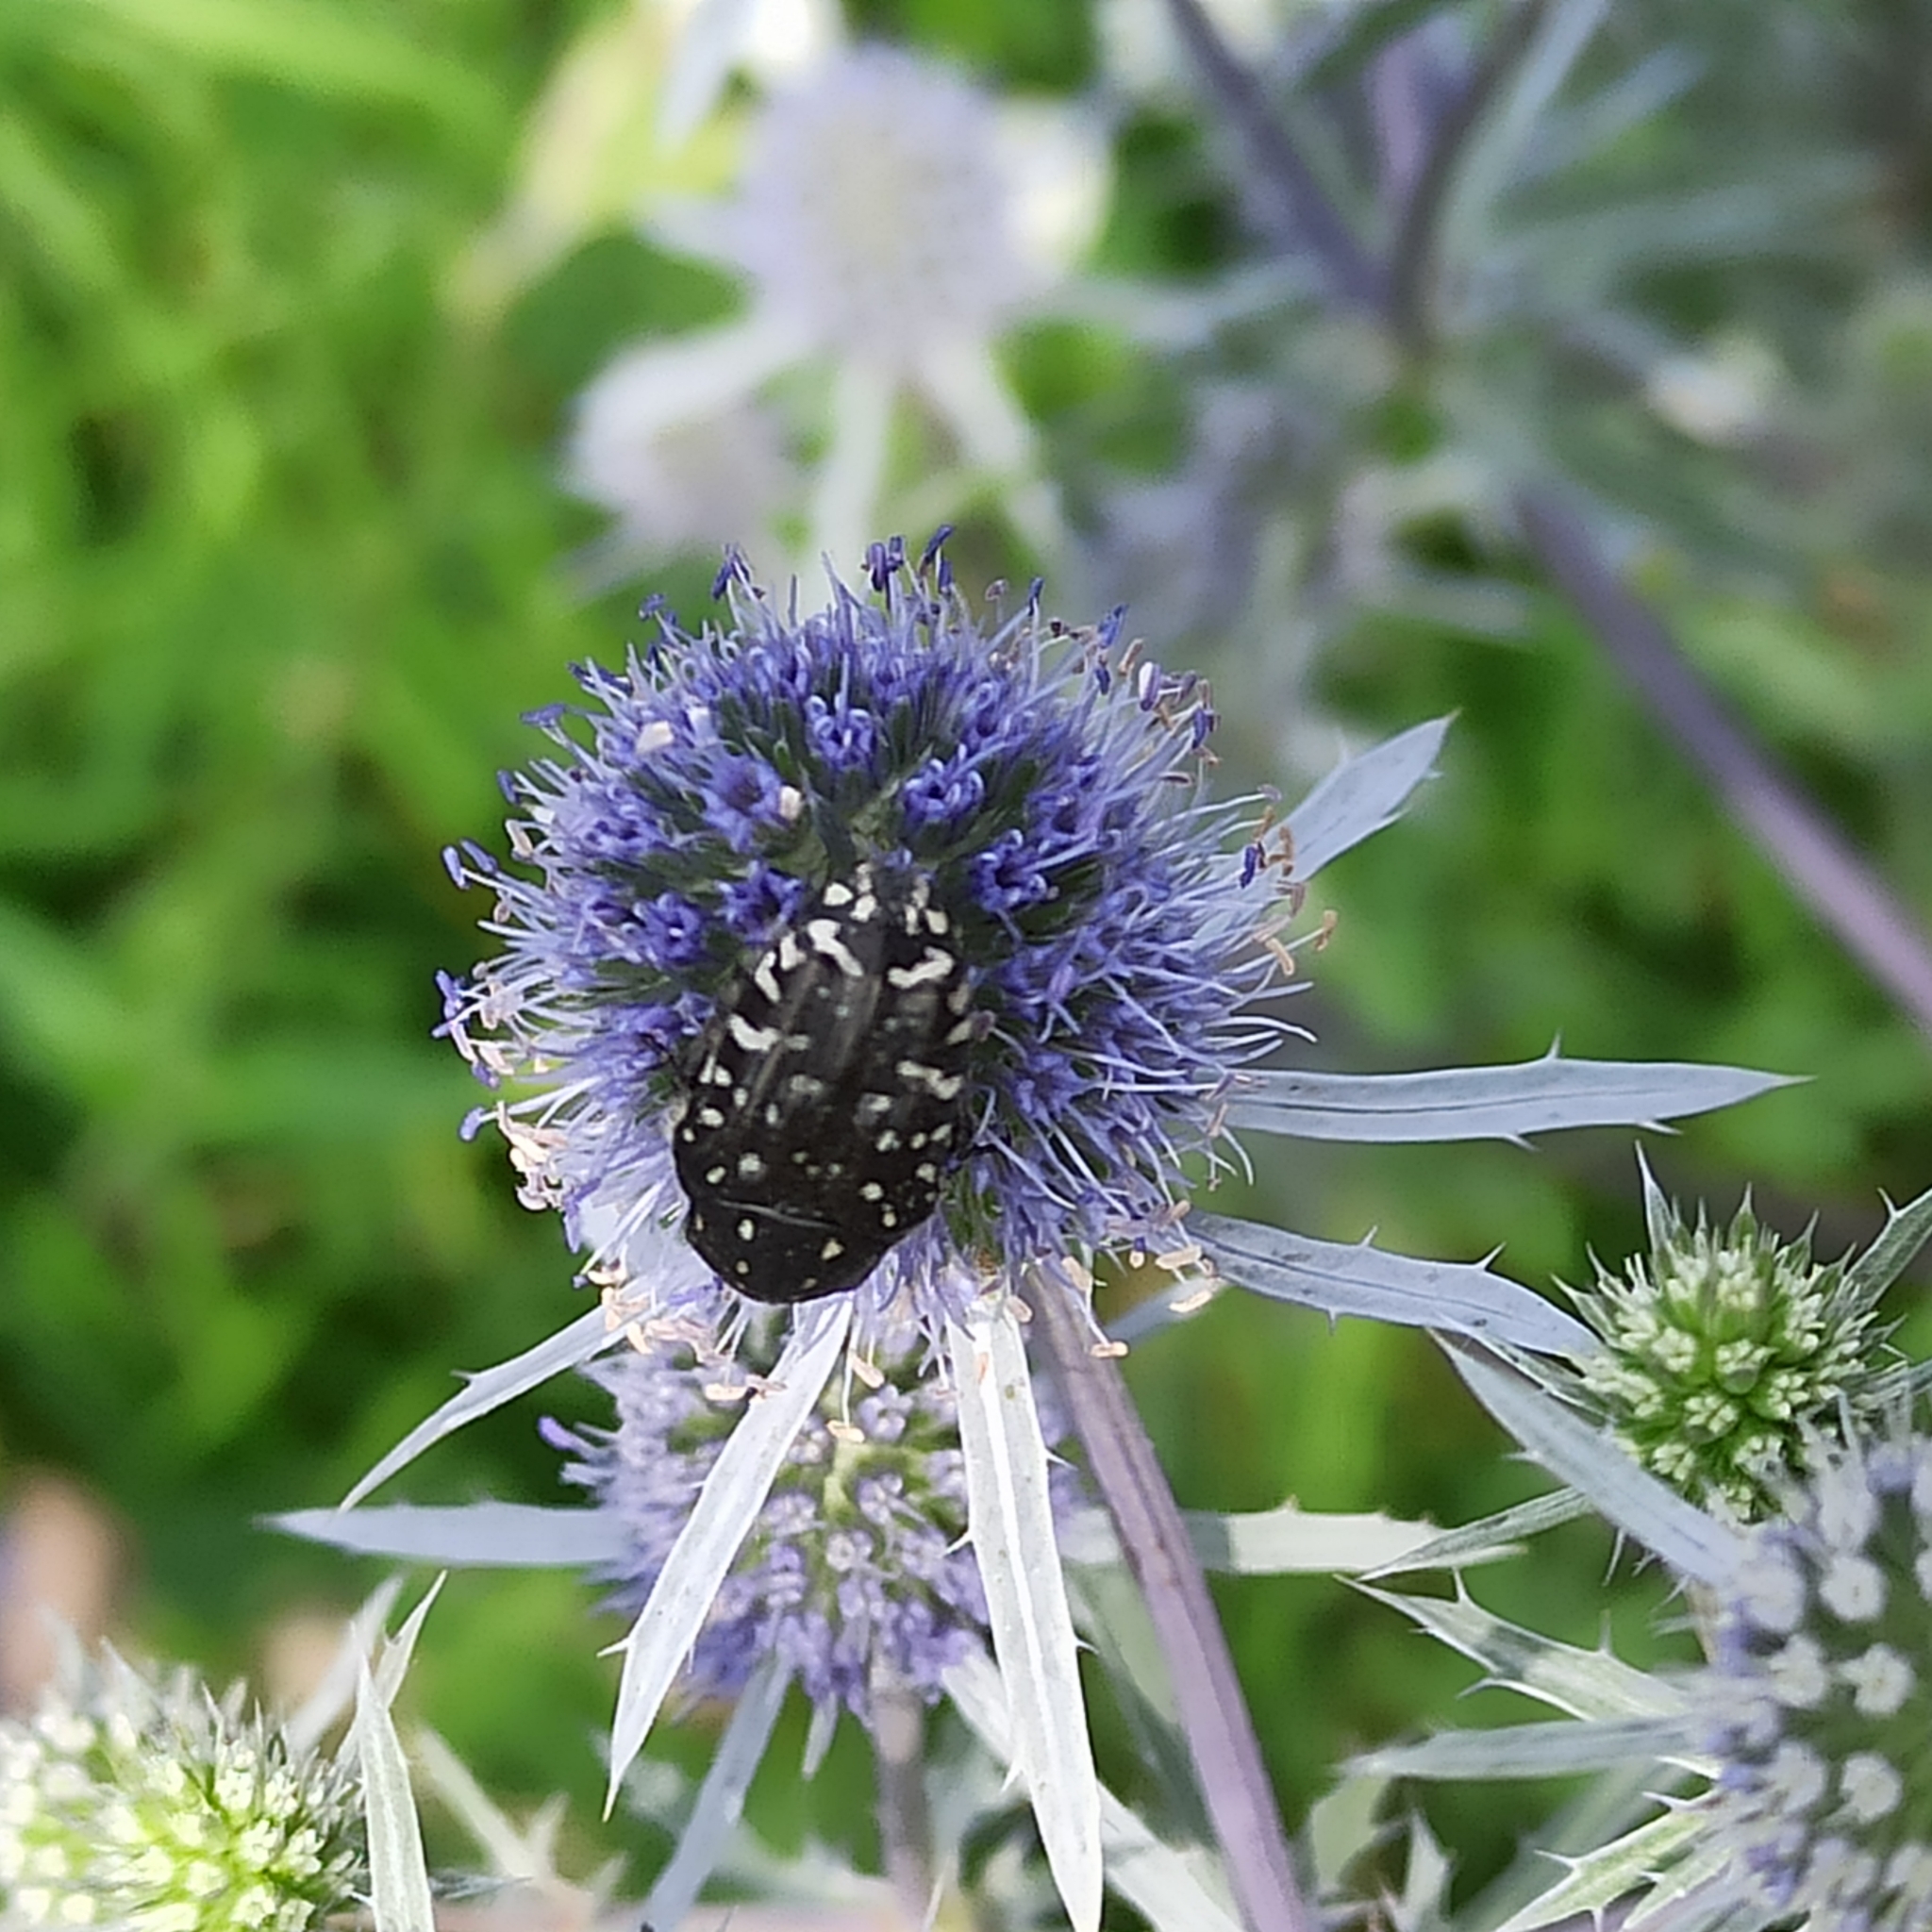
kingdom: Animalia
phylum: Arthropoda
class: Insecta
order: Coleoptera
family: Scarabaeidae
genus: Oxythyrea
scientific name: Oxythyrea funesta
